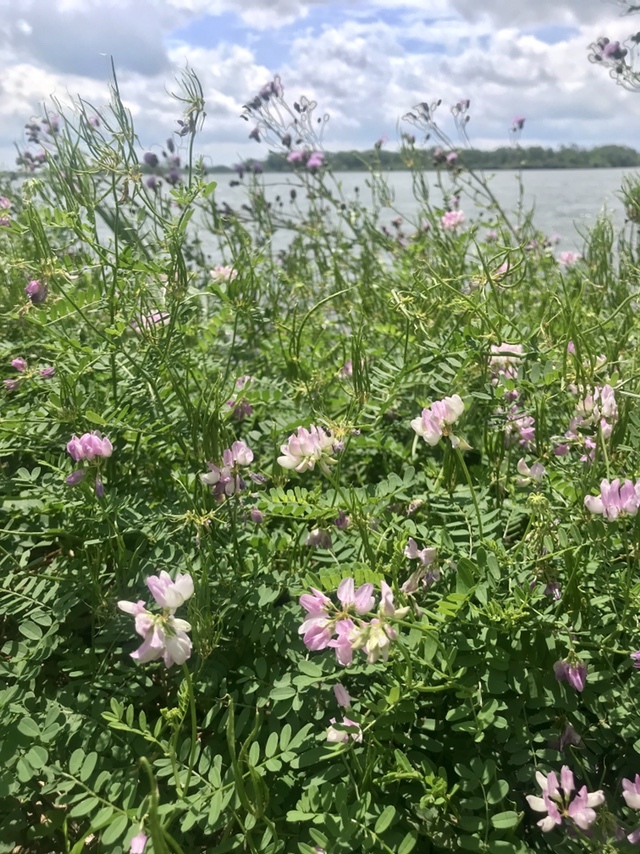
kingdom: Plantae
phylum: Tracheophyta
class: Magnoliopsida
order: Fabales
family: Fabaceae
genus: Coronilla
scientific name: Coronilla varia
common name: Crownvetch
